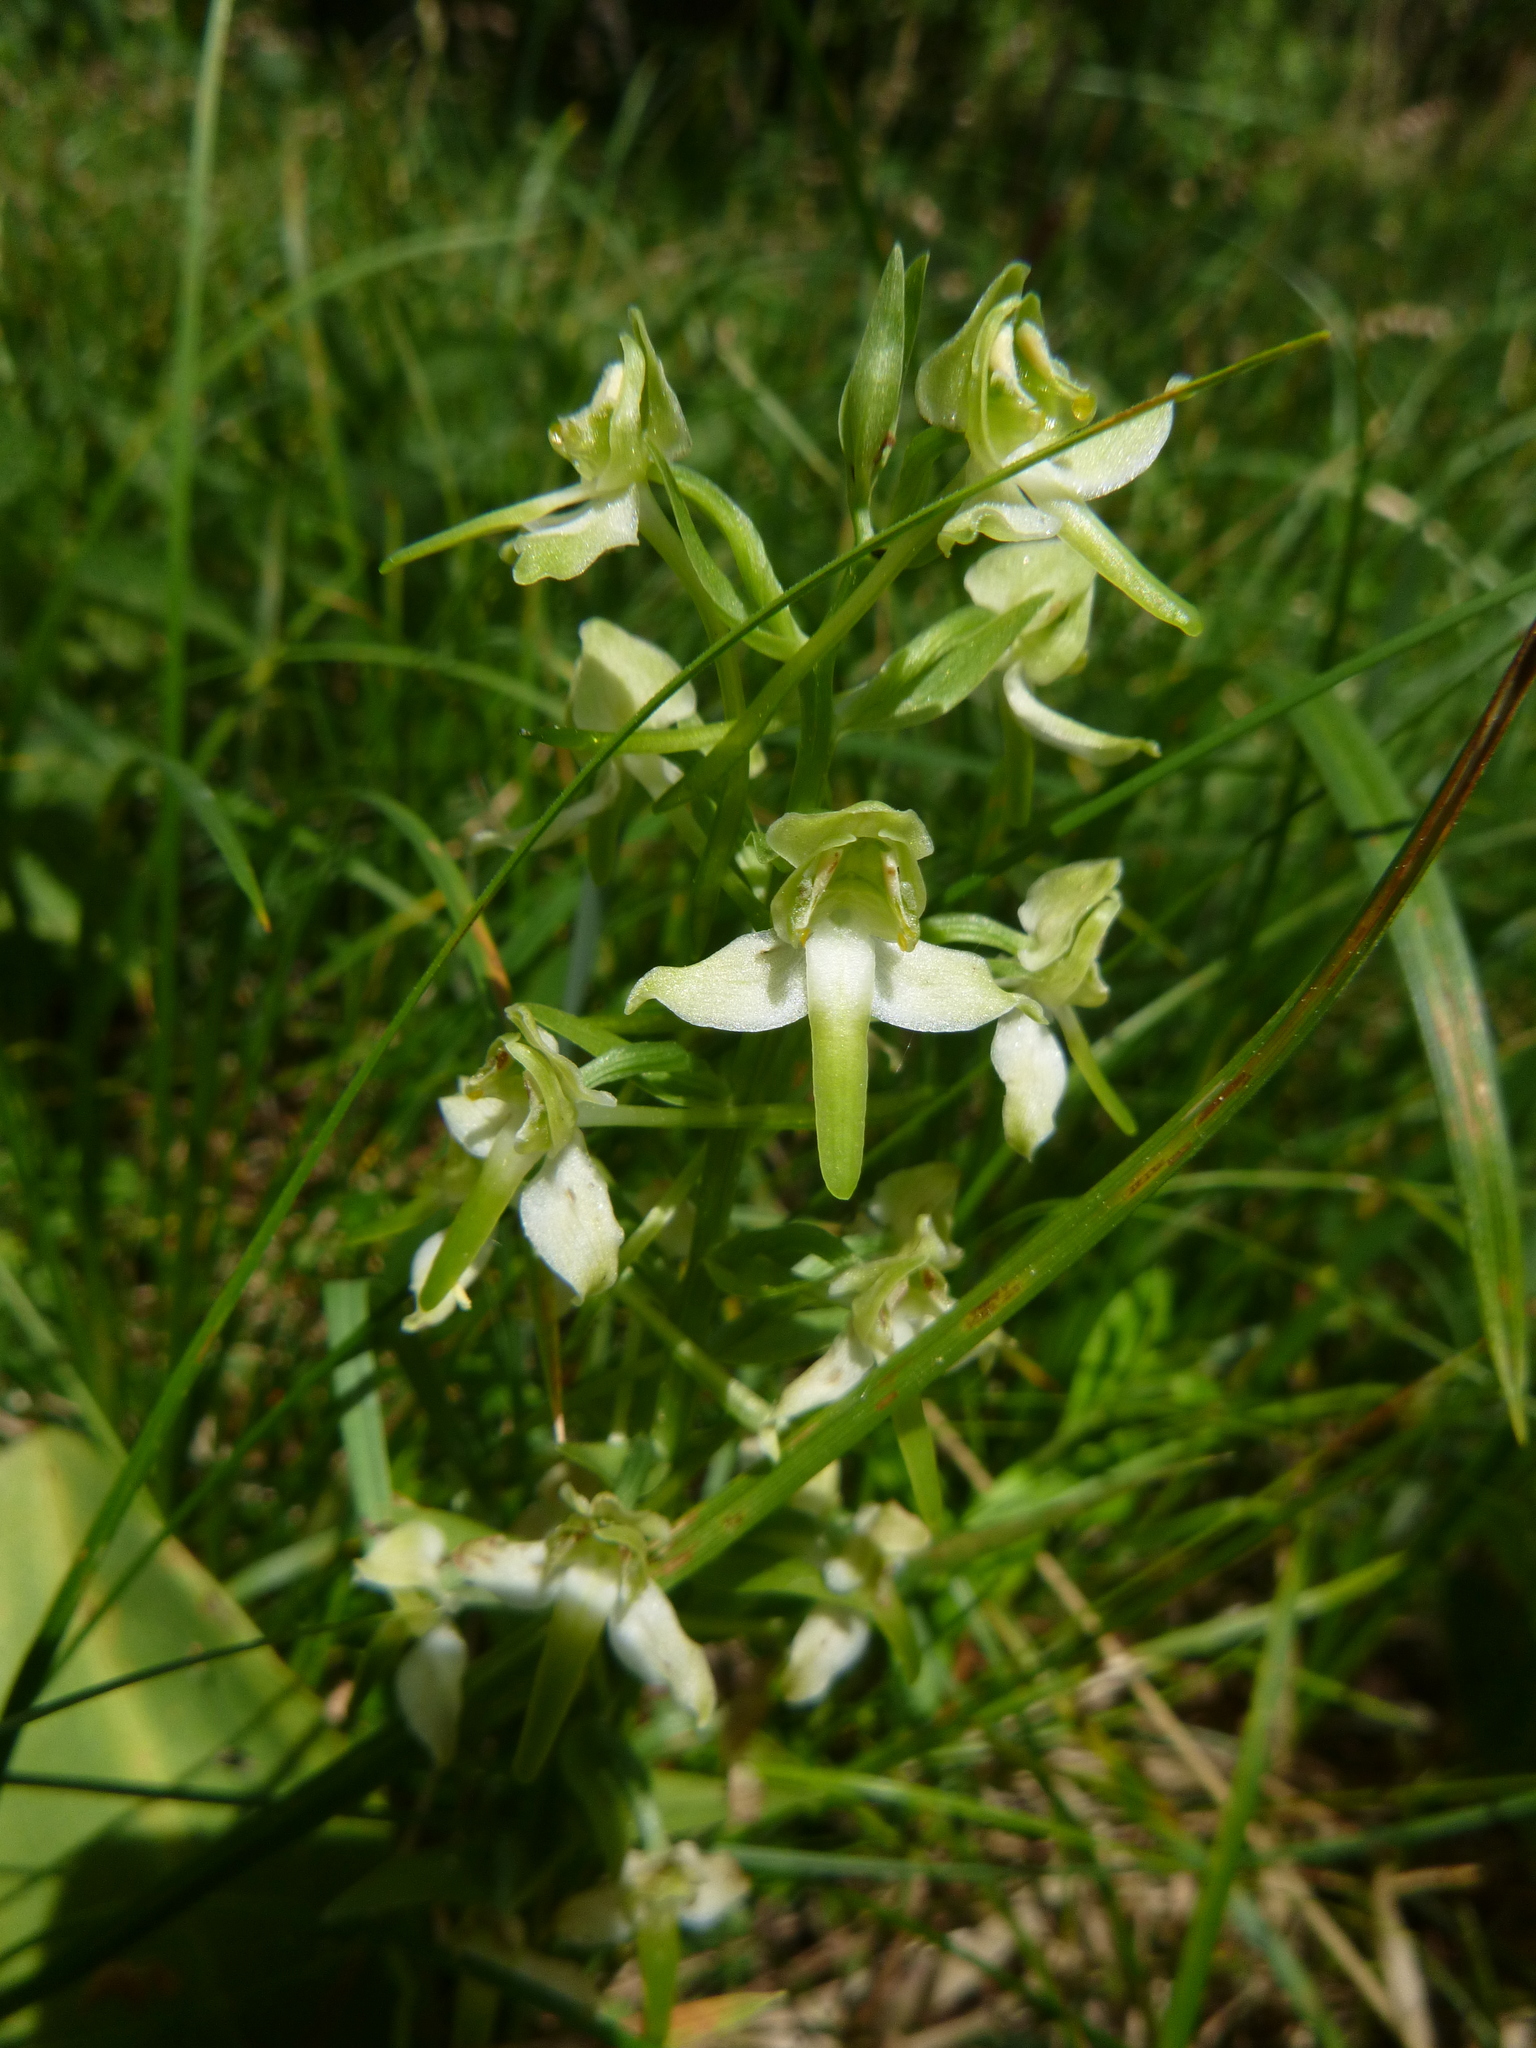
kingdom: Plantae
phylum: Tracheophyta
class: Liliopsida
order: Asparagales
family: Orchidaceae
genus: Platanthera
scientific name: Platanthera chlorantha
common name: Greater butterfly-orchid
